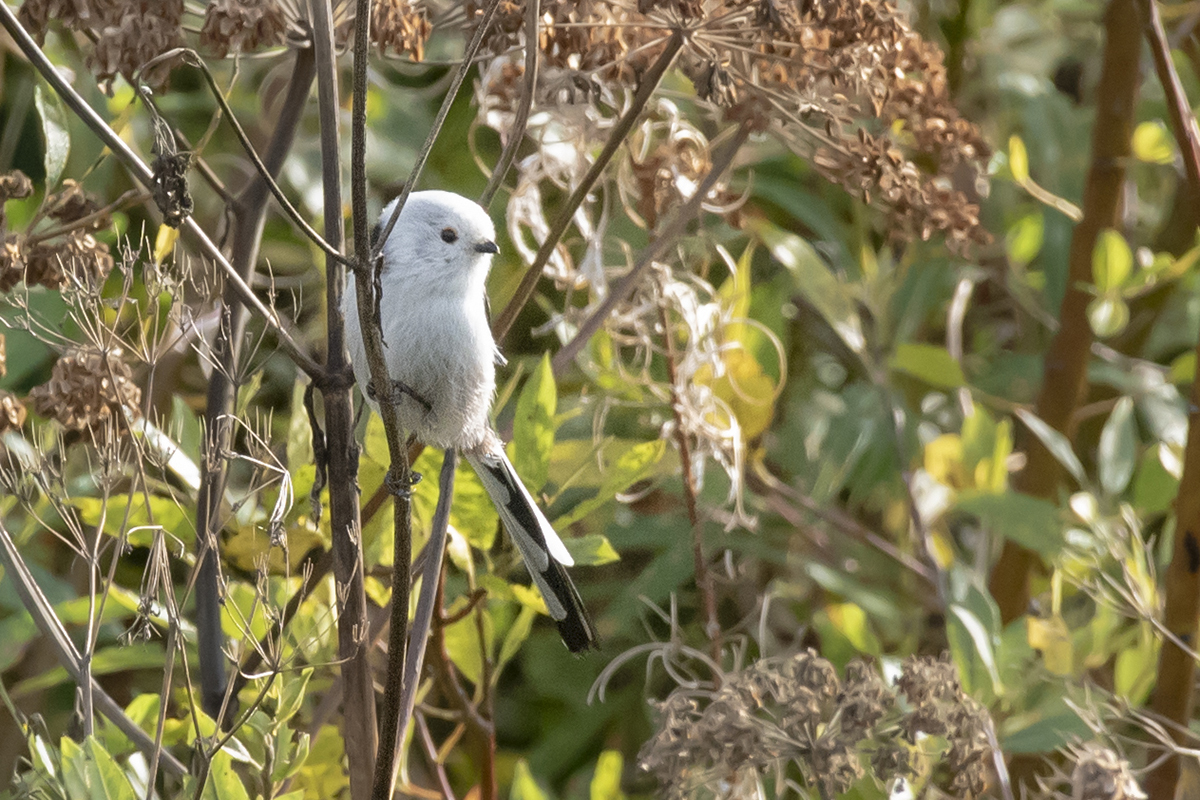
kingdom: Animalia
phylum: Chordata
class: Aves
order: Passeriformes
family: Aegithalidae
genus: Aegithalos
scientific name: Aegithalos caudatus
